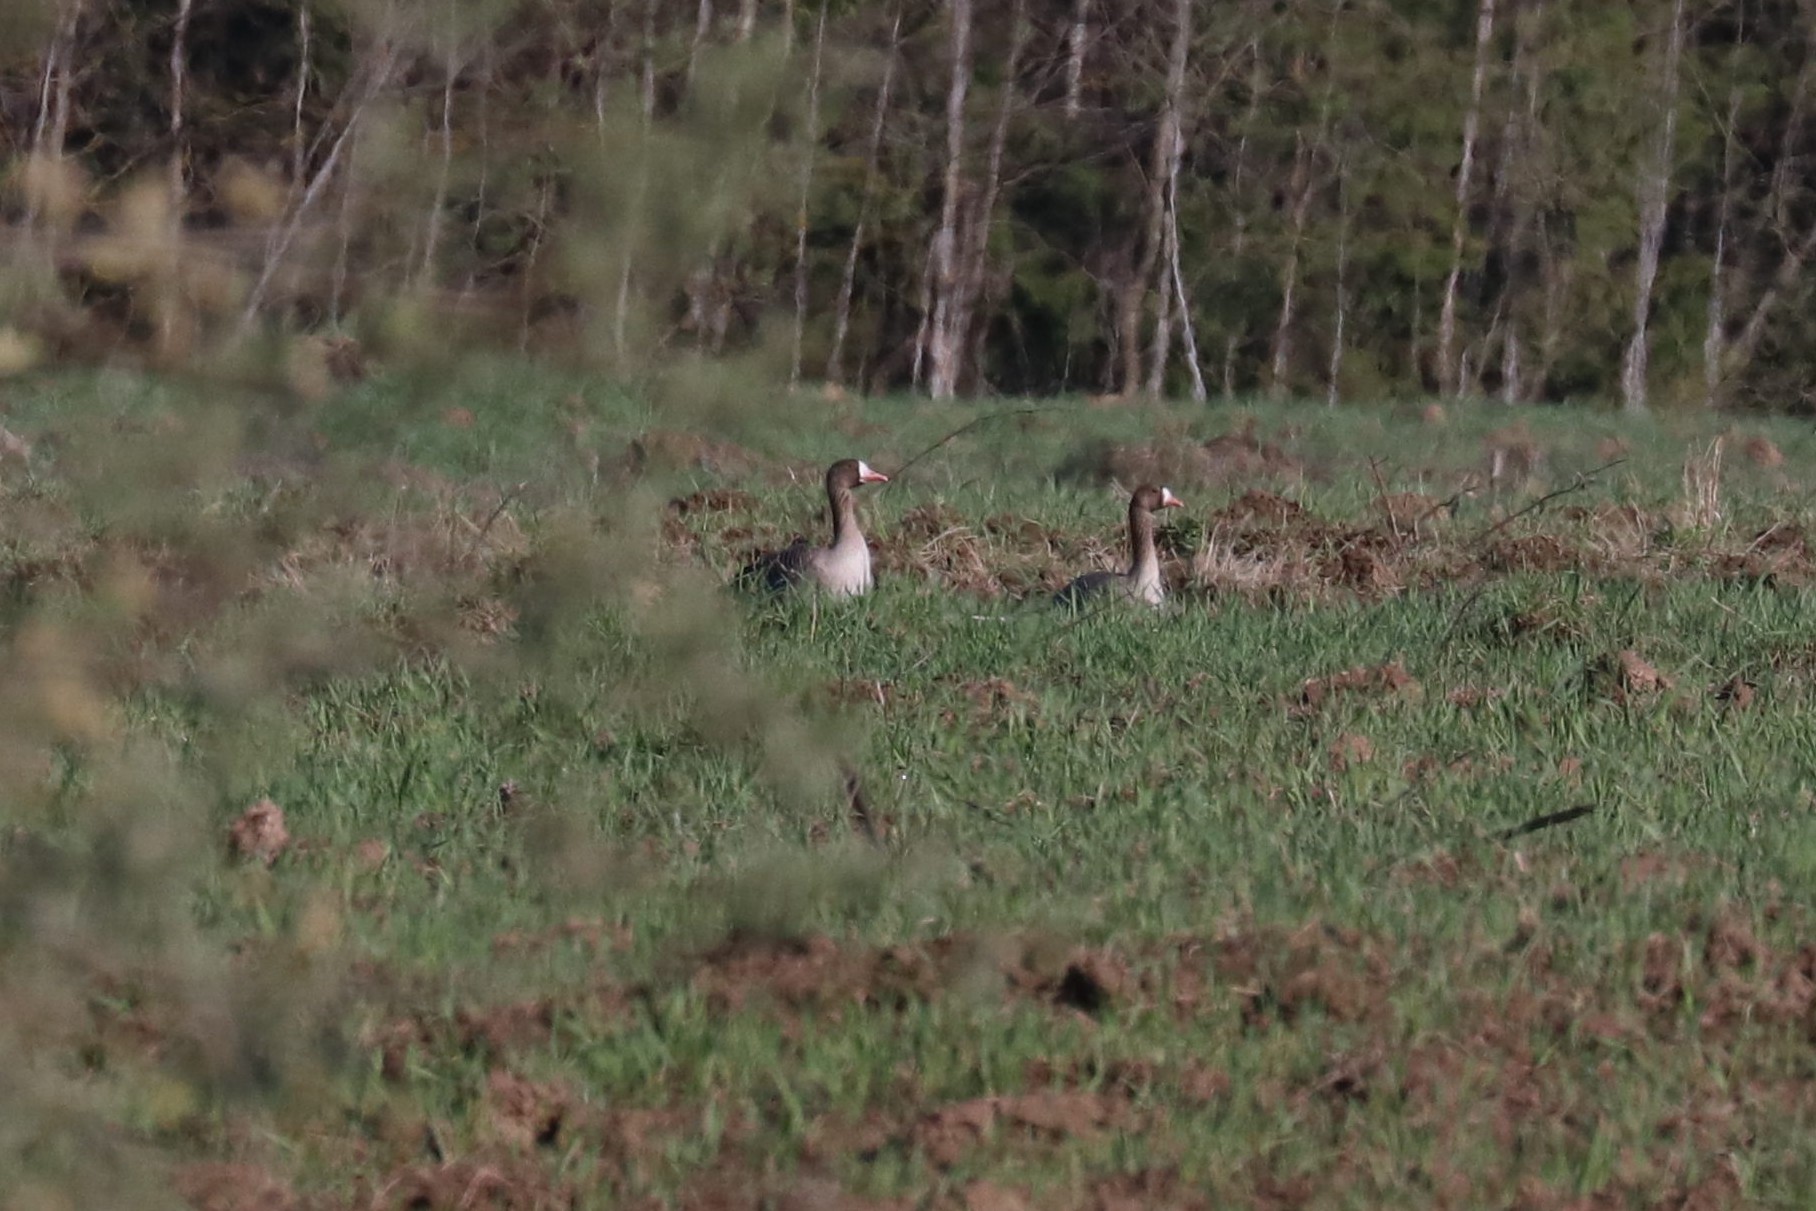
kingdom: Animalia
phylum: Chordata
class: Aves
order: Anseriformes
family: Anatidae
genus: Anser
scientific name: Anser albifrons
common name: Greater white-fronted goose
